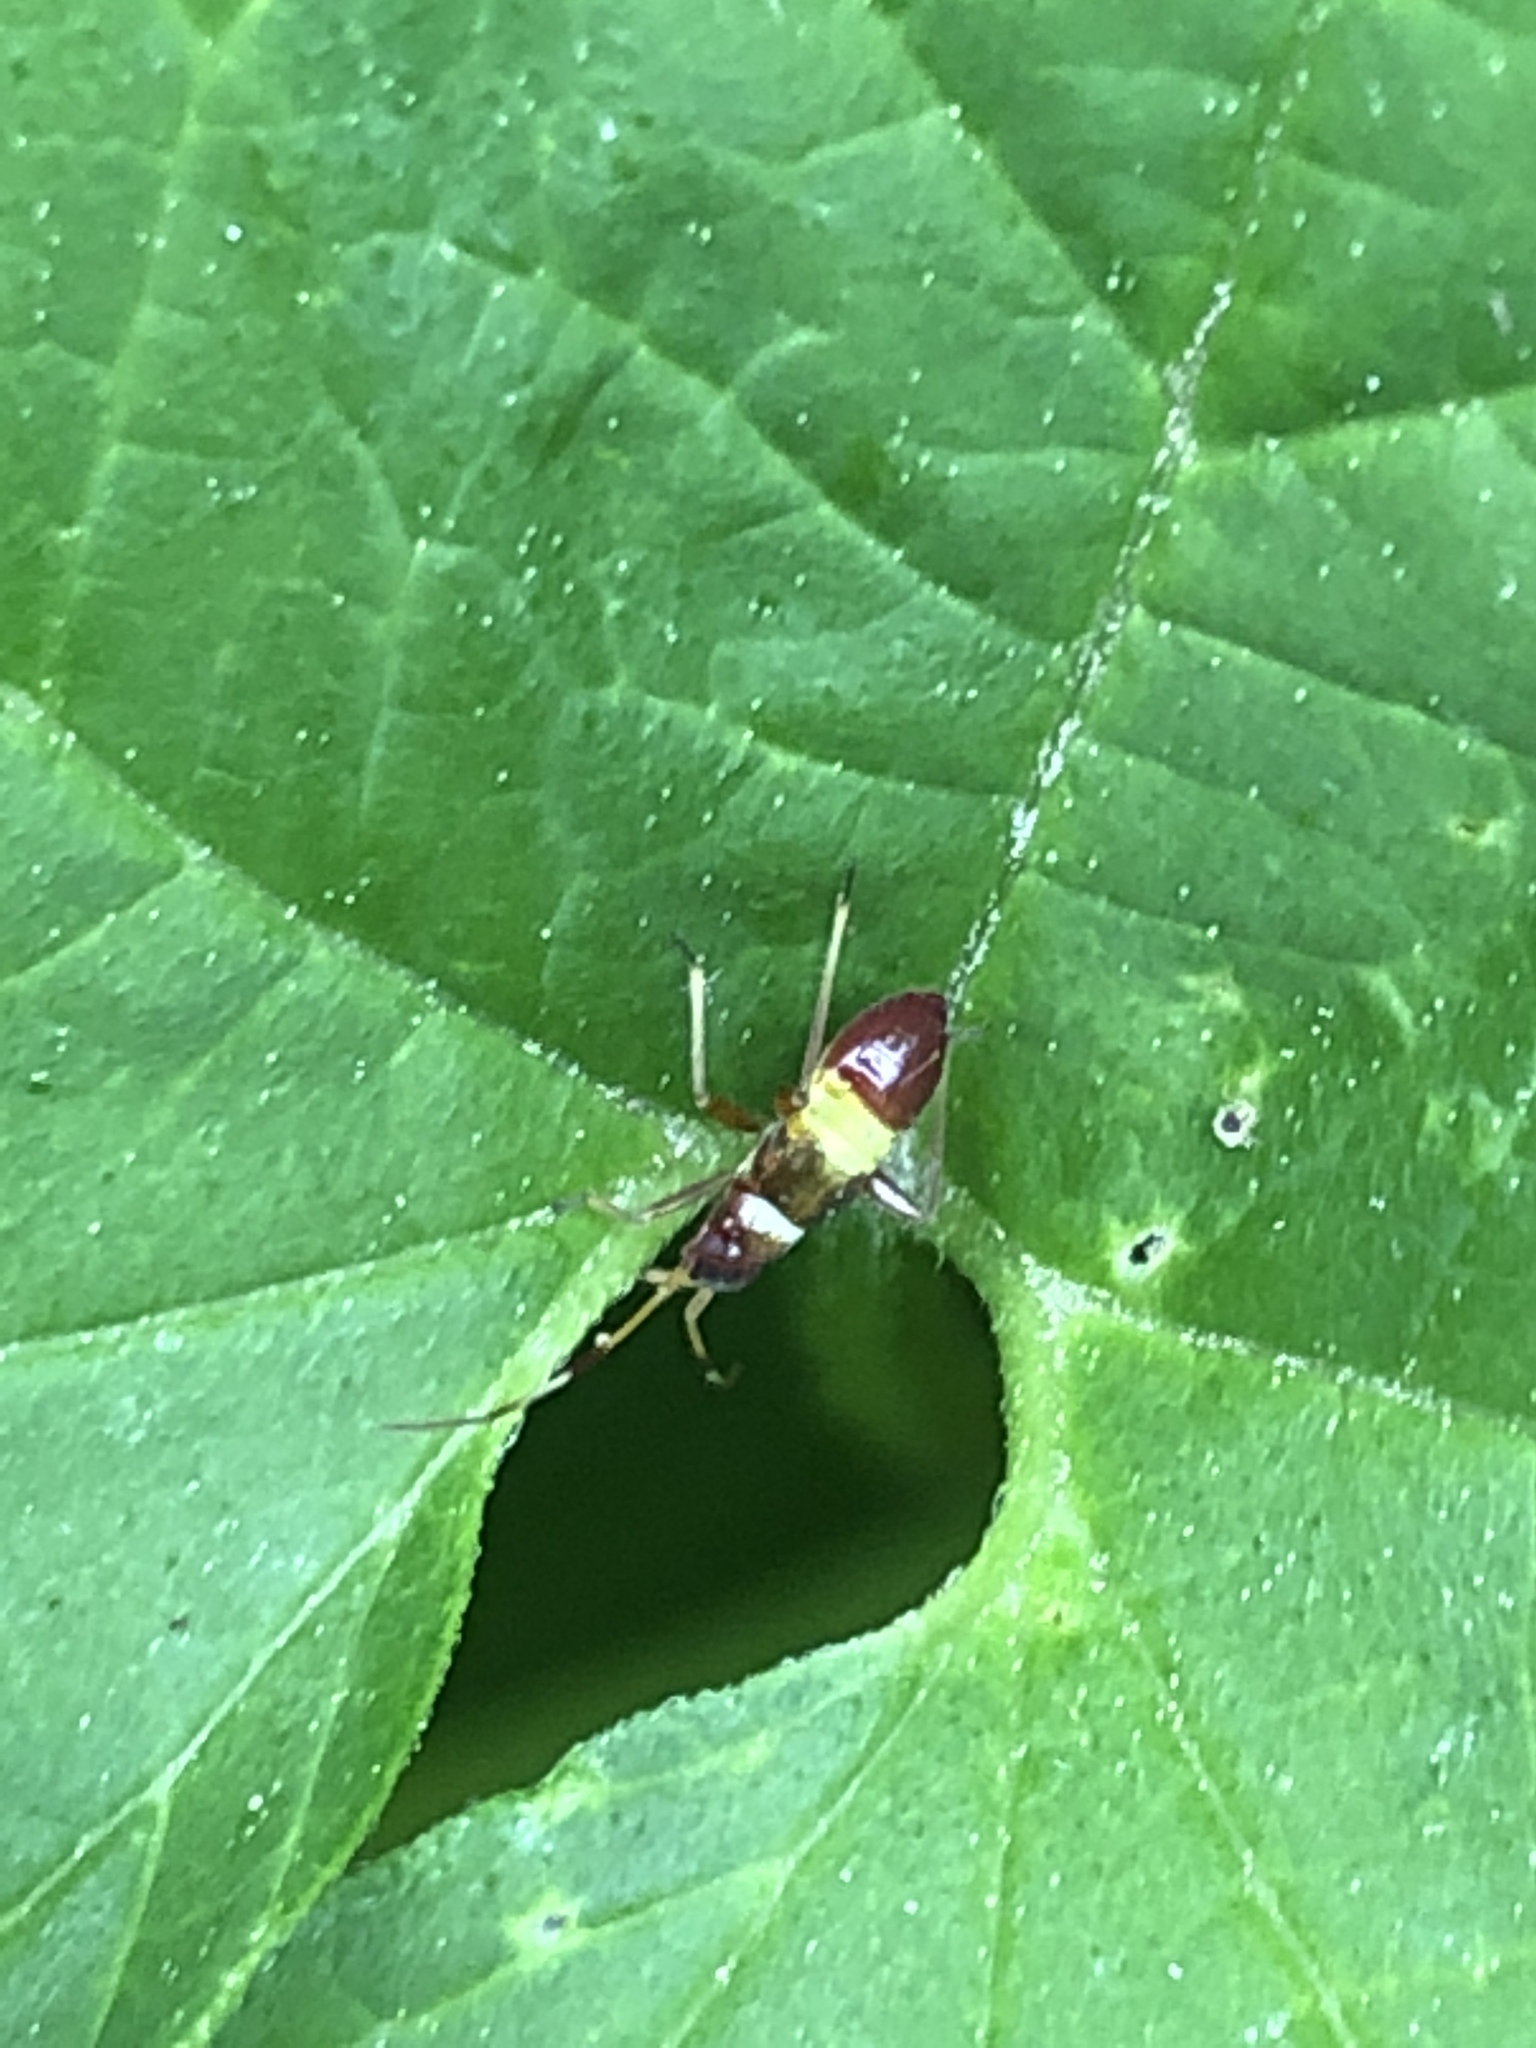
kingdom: Animalia
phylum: Arthropoda
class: Insecta
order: Hemiptera
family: Miridae
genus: Closterotomus
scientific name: Closterotomus biclavatus
